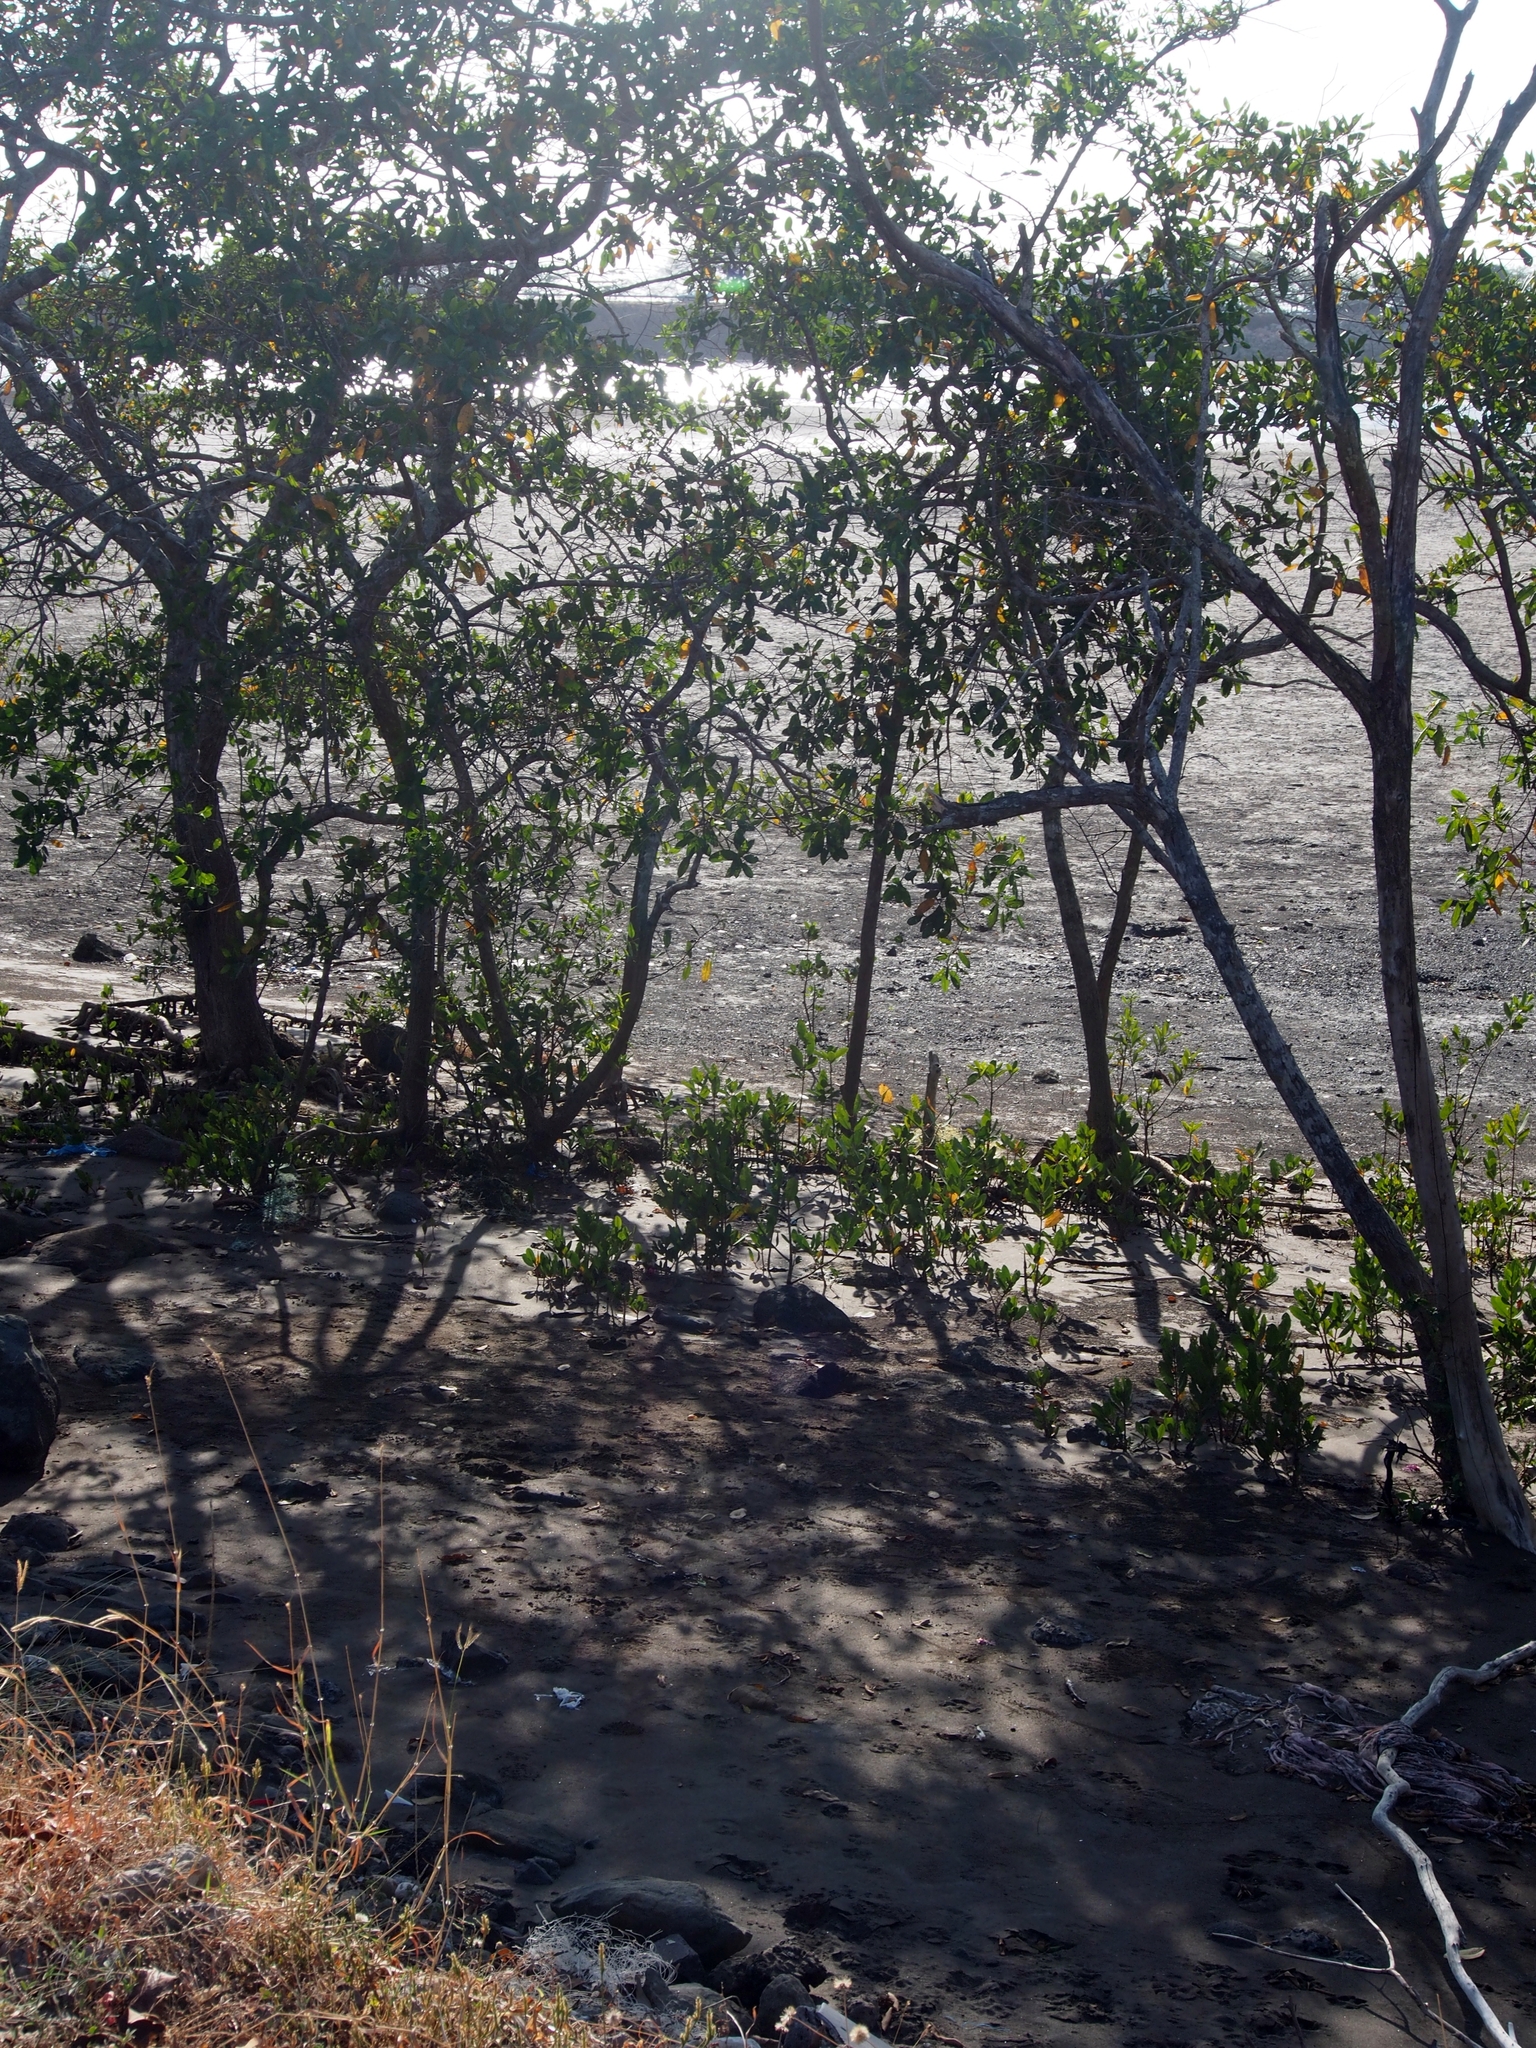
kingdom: Plantae
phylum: Tracheophyta
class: Magnoliopsida
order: Myrtales
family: Combretaceae
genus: Laguncularia
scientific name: Laguncularia racemosa
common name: White mangrove
